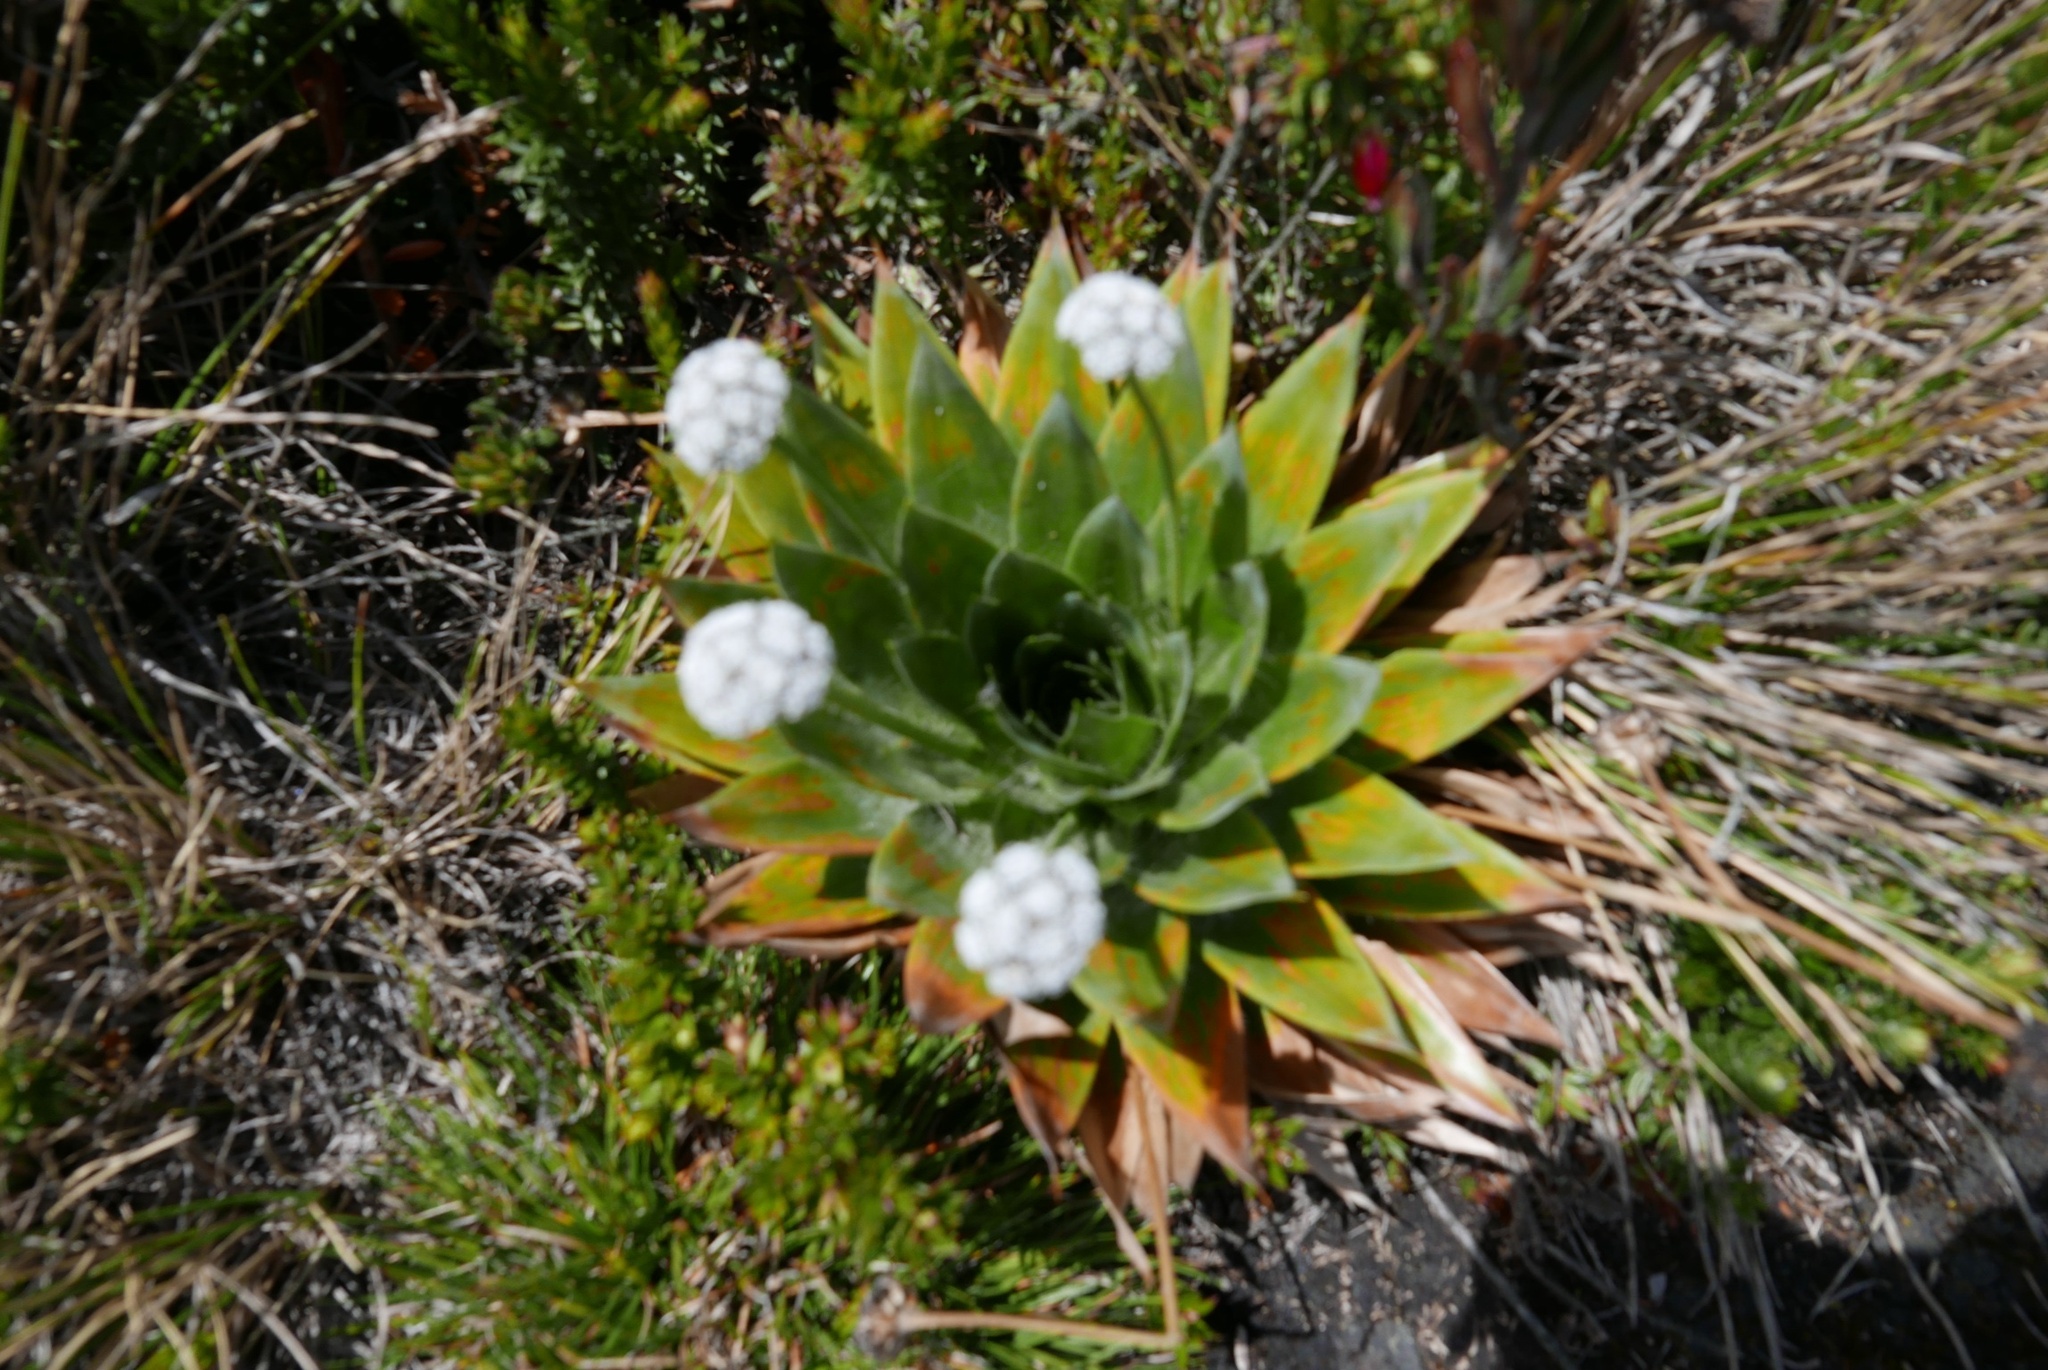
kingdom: Plantae
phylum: Tracheophyta
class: Liliopsida
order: Poales
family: Eriocaulaceae
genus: Paepalanthus
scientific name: Paepalanthus alpinus
